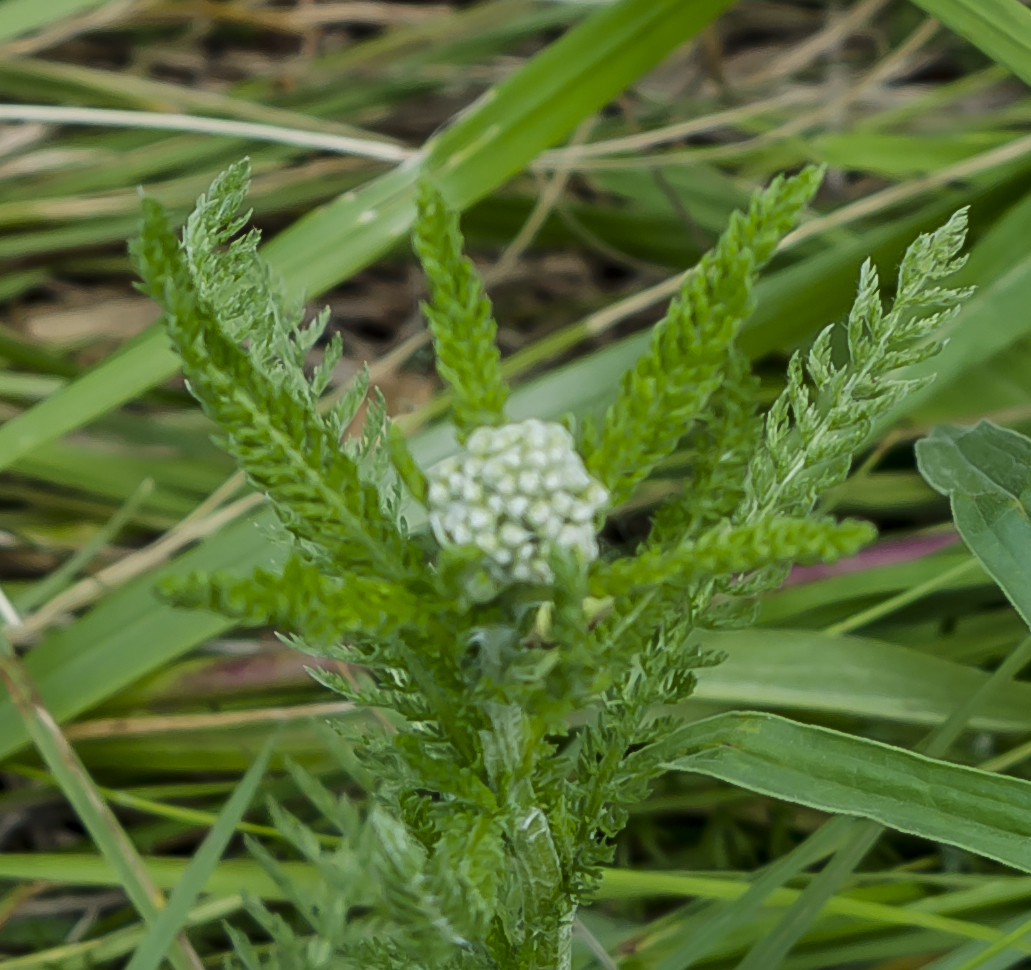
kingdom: Plantae
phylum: Tracheophyta
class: Magnoliopsida
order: Asterales
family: Asteraceae
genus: Achillea
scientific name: Achillea millefolium
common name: Yarrow
